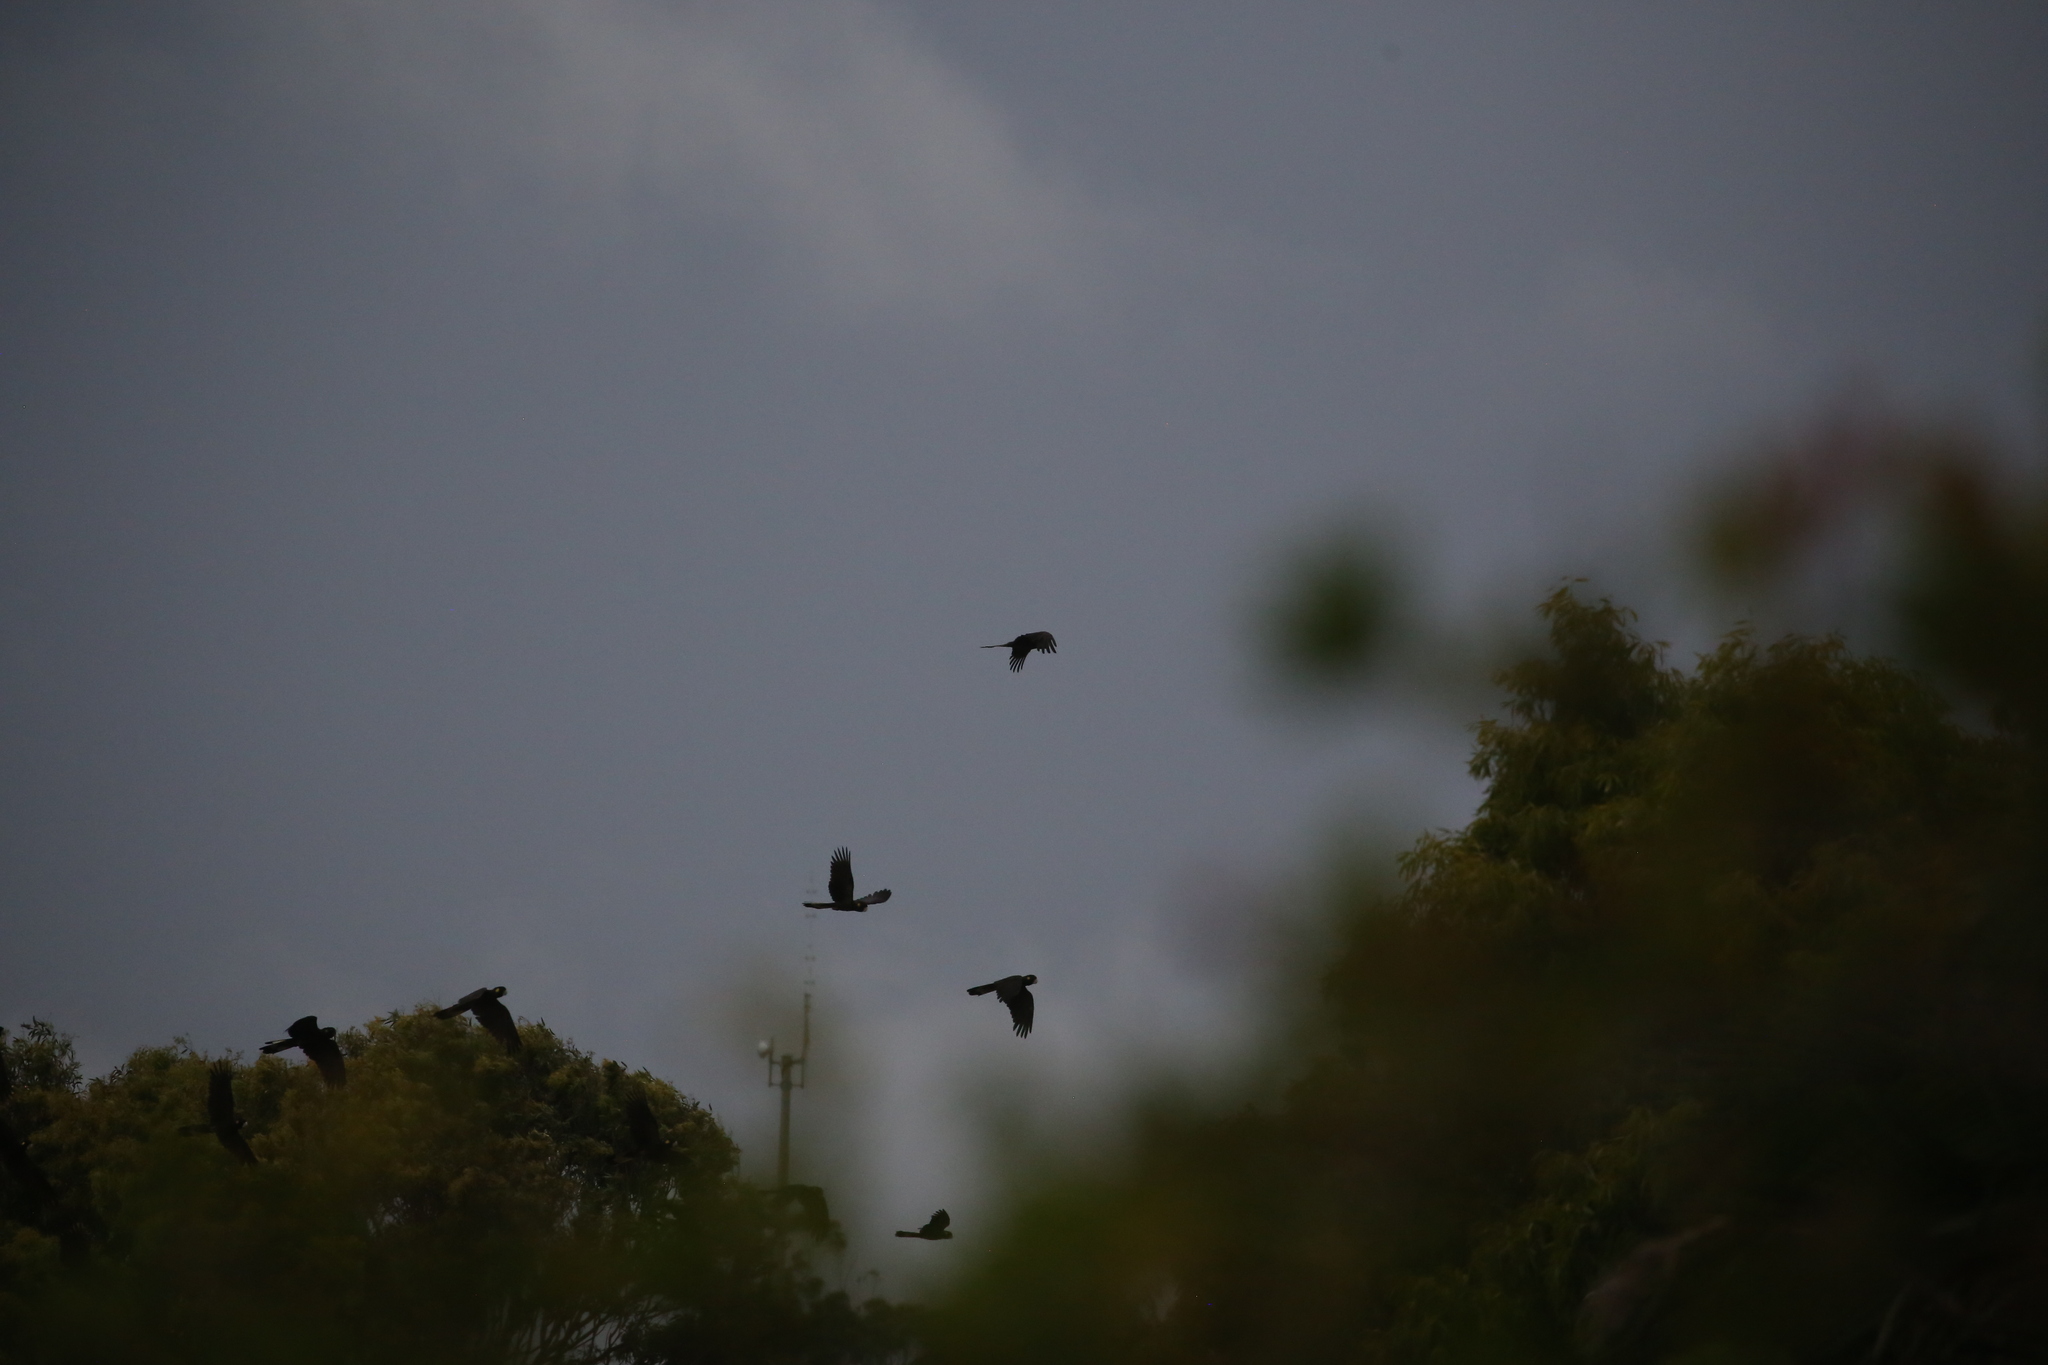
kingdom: Animalia
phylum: Chordata
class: Aves
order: Psittaciformes
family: Cacatuidae
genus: Zanda
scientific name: Zanda funerea
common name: Yellow-tailed black-cockatoo
